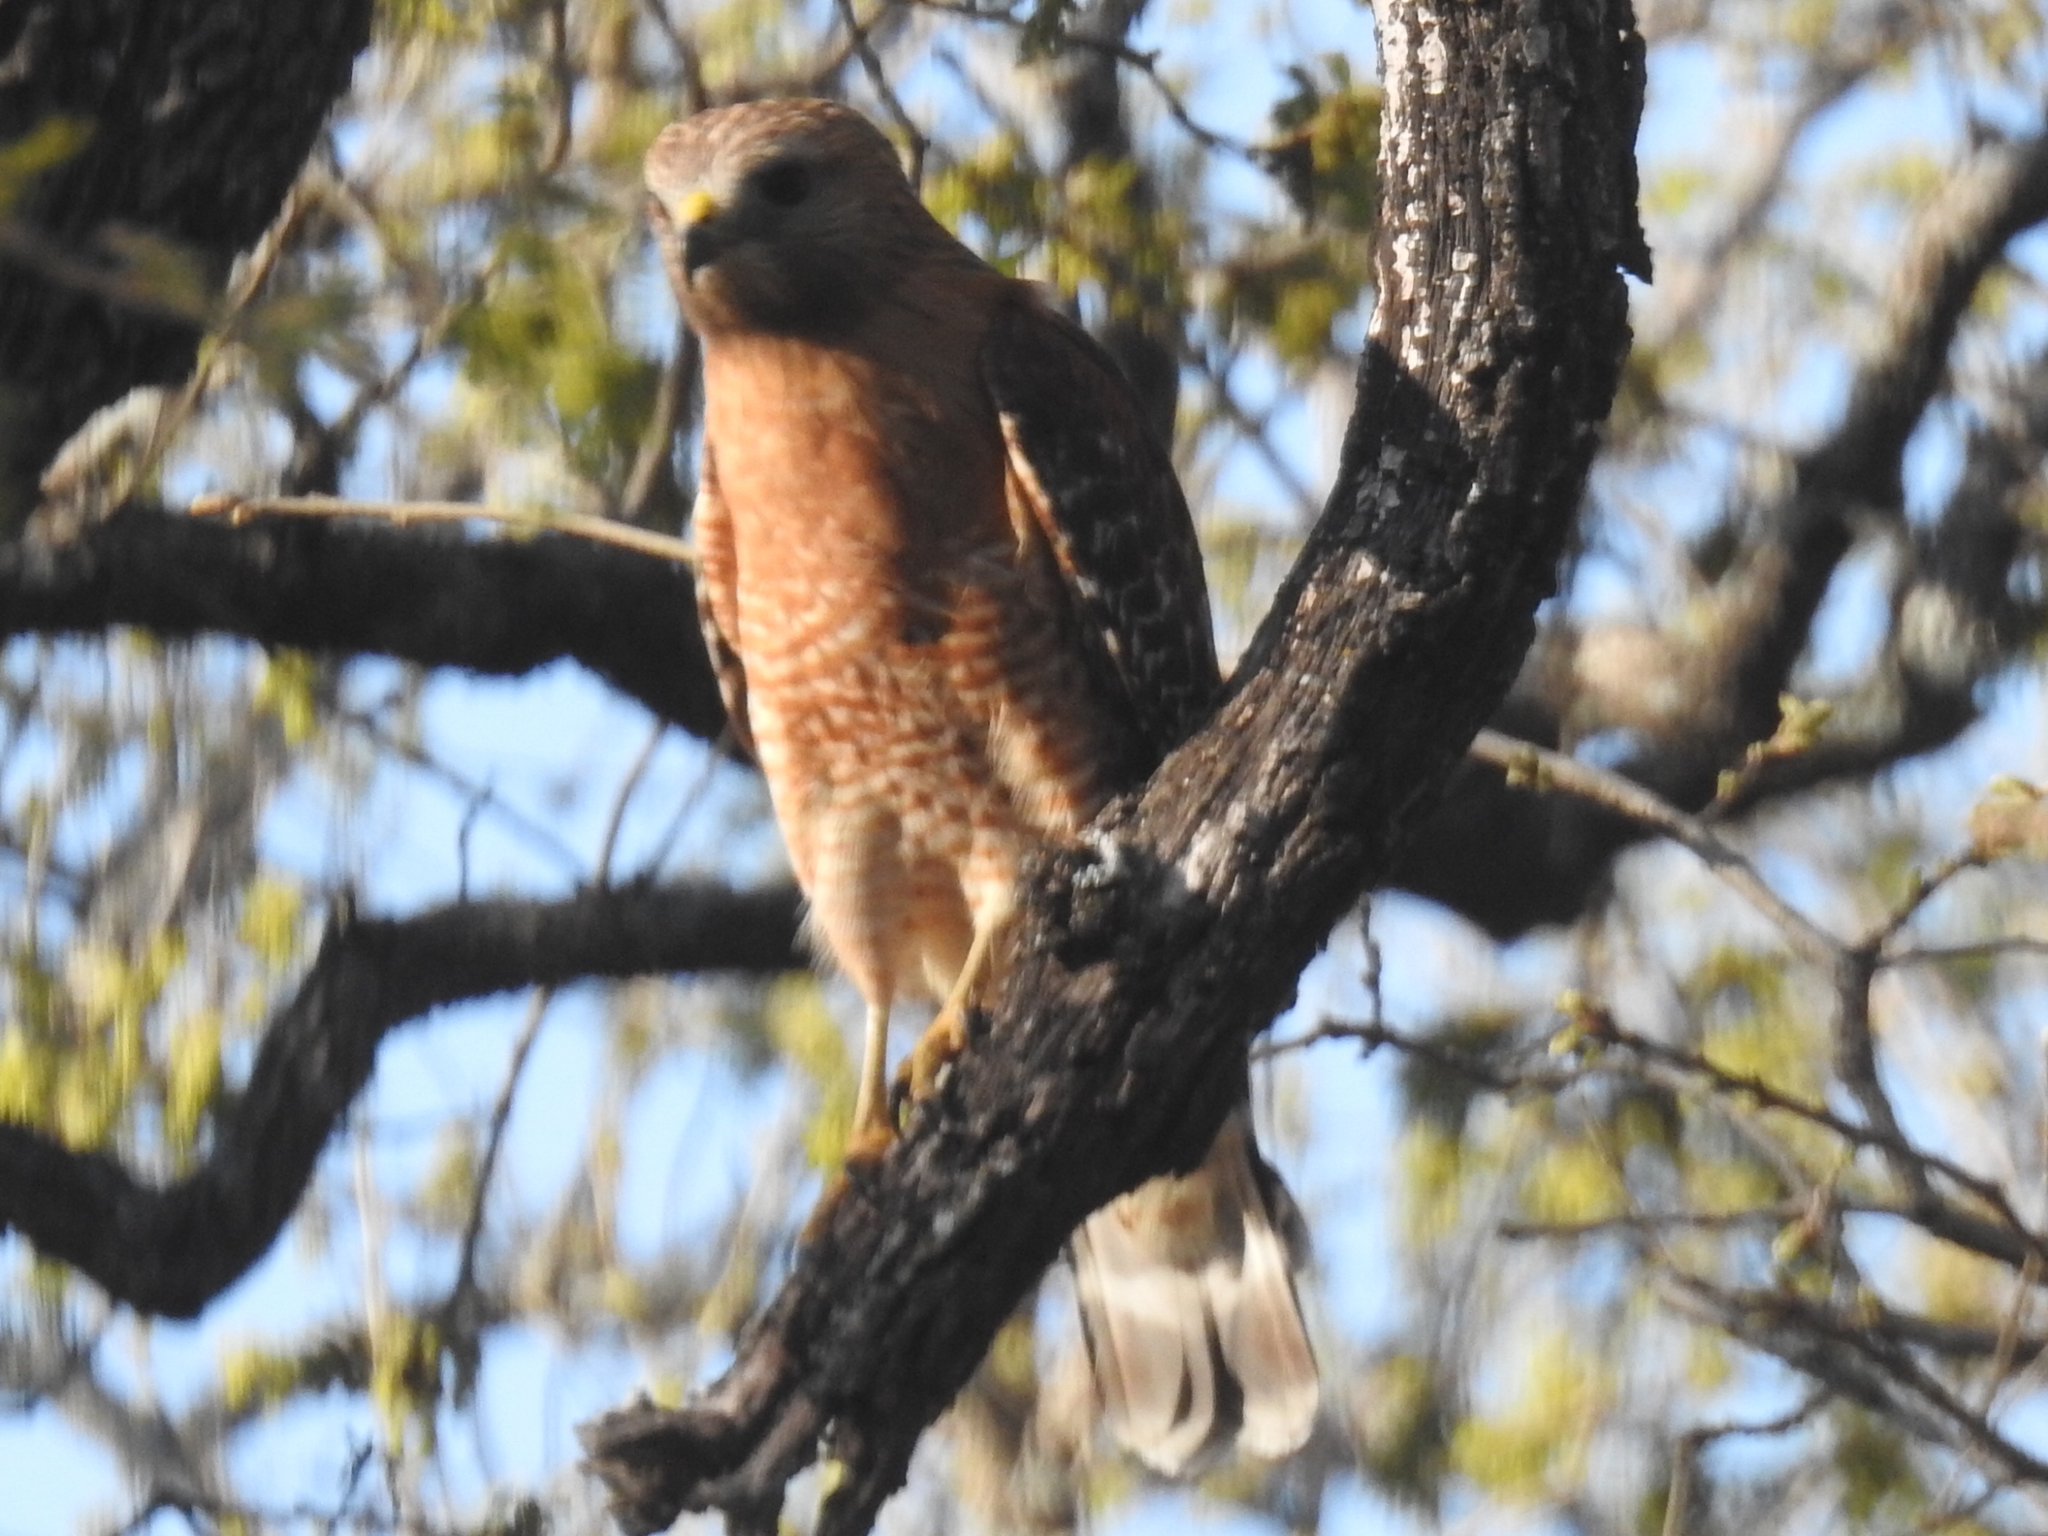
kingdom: Animalia
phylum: Chordata
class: Aves
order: Accipitriformes
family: Accipitridae
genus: Buteo
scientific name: Buteo lineatus
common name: Red-shouldered hawk
